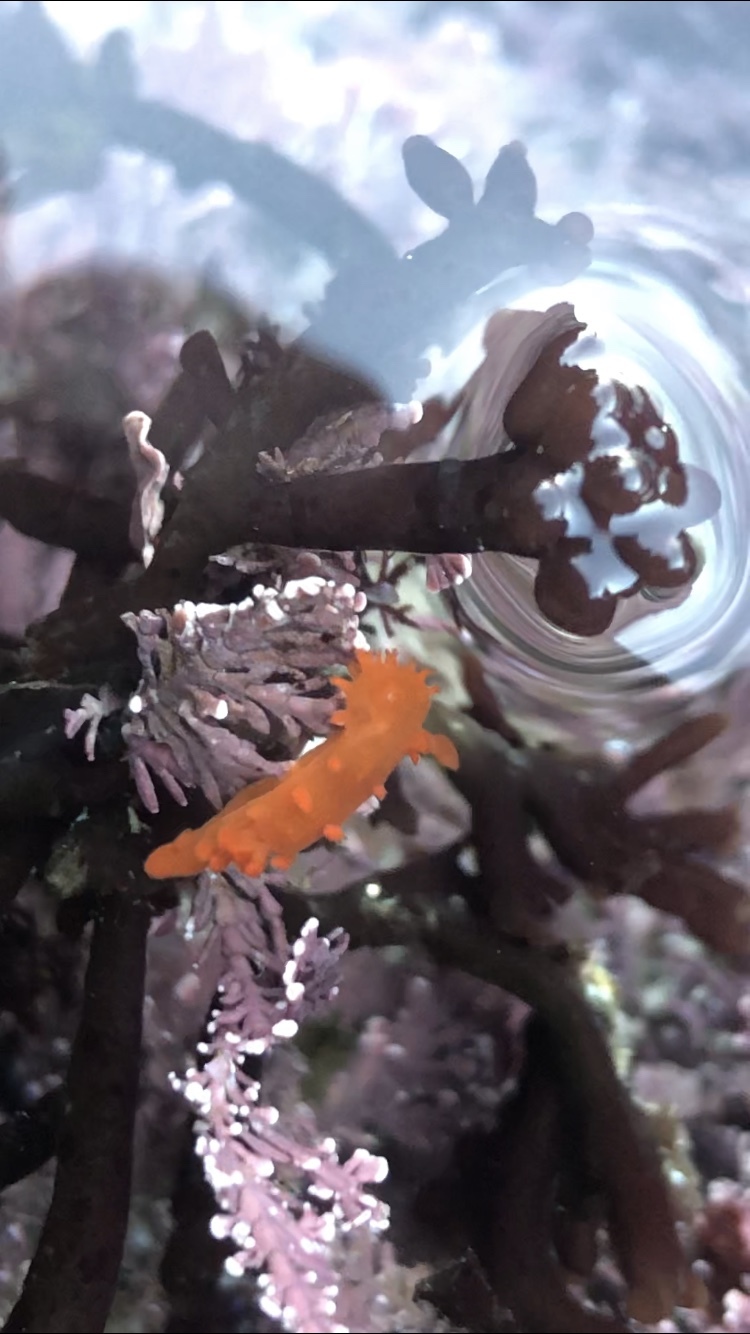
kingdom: Animalia
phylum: Mollusca
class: Gastropoda
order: Nudibranchia
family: Polyceridae
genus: Triopha
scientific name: Triopha maculata
